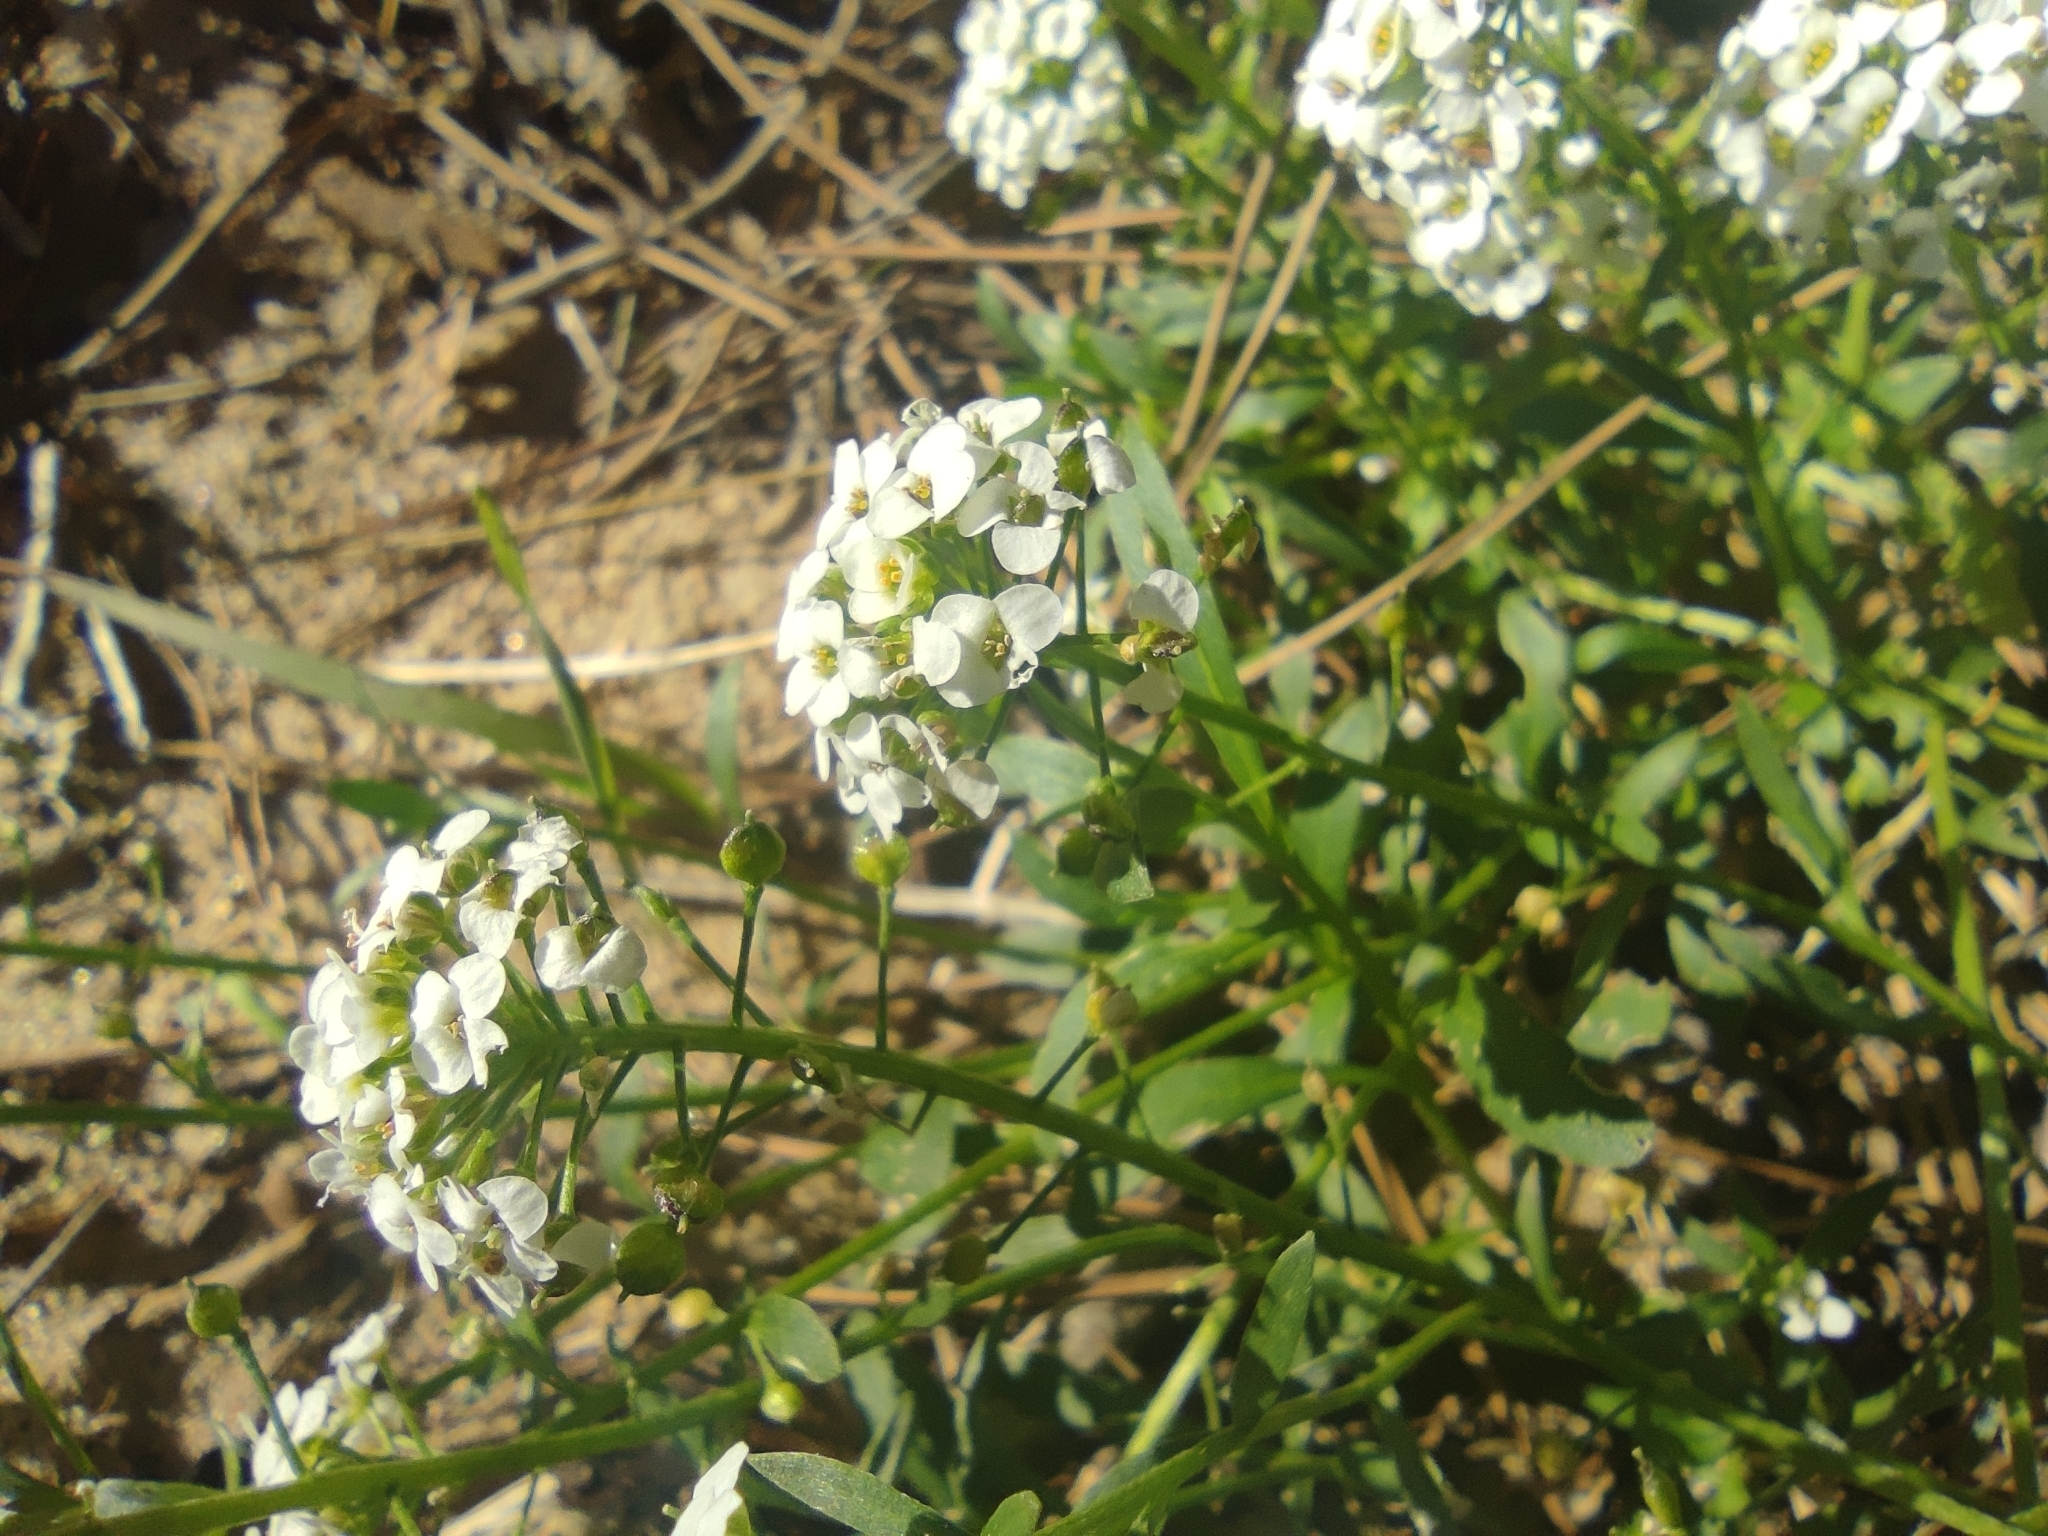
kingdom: Plantae
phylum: Tracheophyta
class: Magnoliopsida
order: Brassicales
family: Brassicaceae
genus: Lobularia
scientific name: Lobularia maritima
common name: Sweet alison
